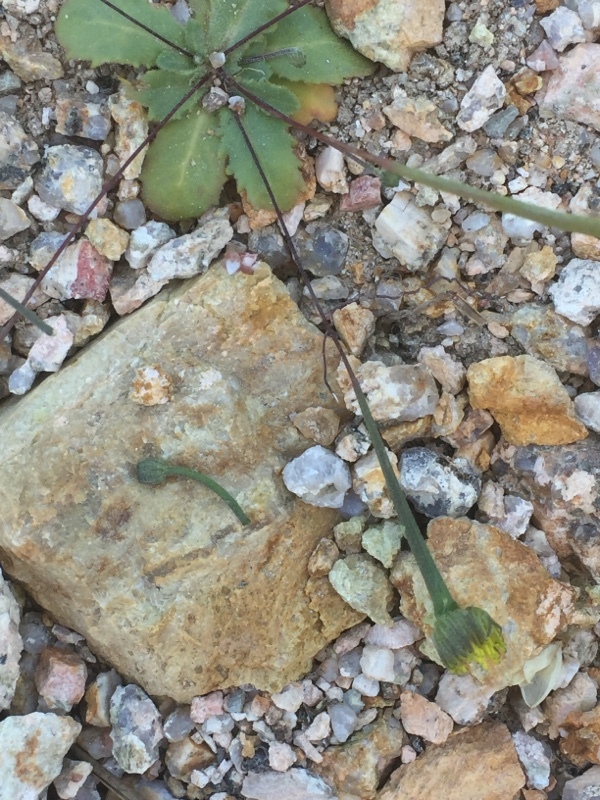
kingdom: Plantae
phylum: Tracheophyta
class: Magnoliopsida
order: Asterales
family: Asteraceae
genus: Arnoseris
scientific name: Arnoseris minima
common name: Lamb's succory
